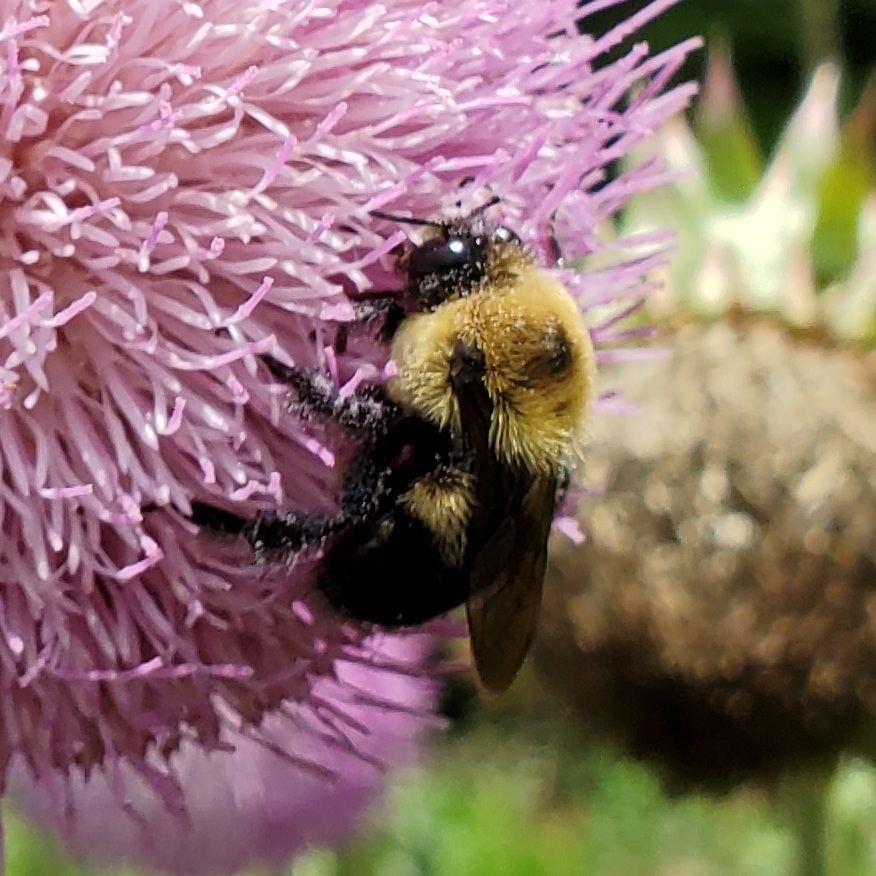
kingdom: Animalia
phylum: Arthropoda
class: Insecta
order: Hymenoptera
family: Apidae
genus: Bombus
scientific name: Bombus griseocollis
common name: Brown-belted bumble bee
